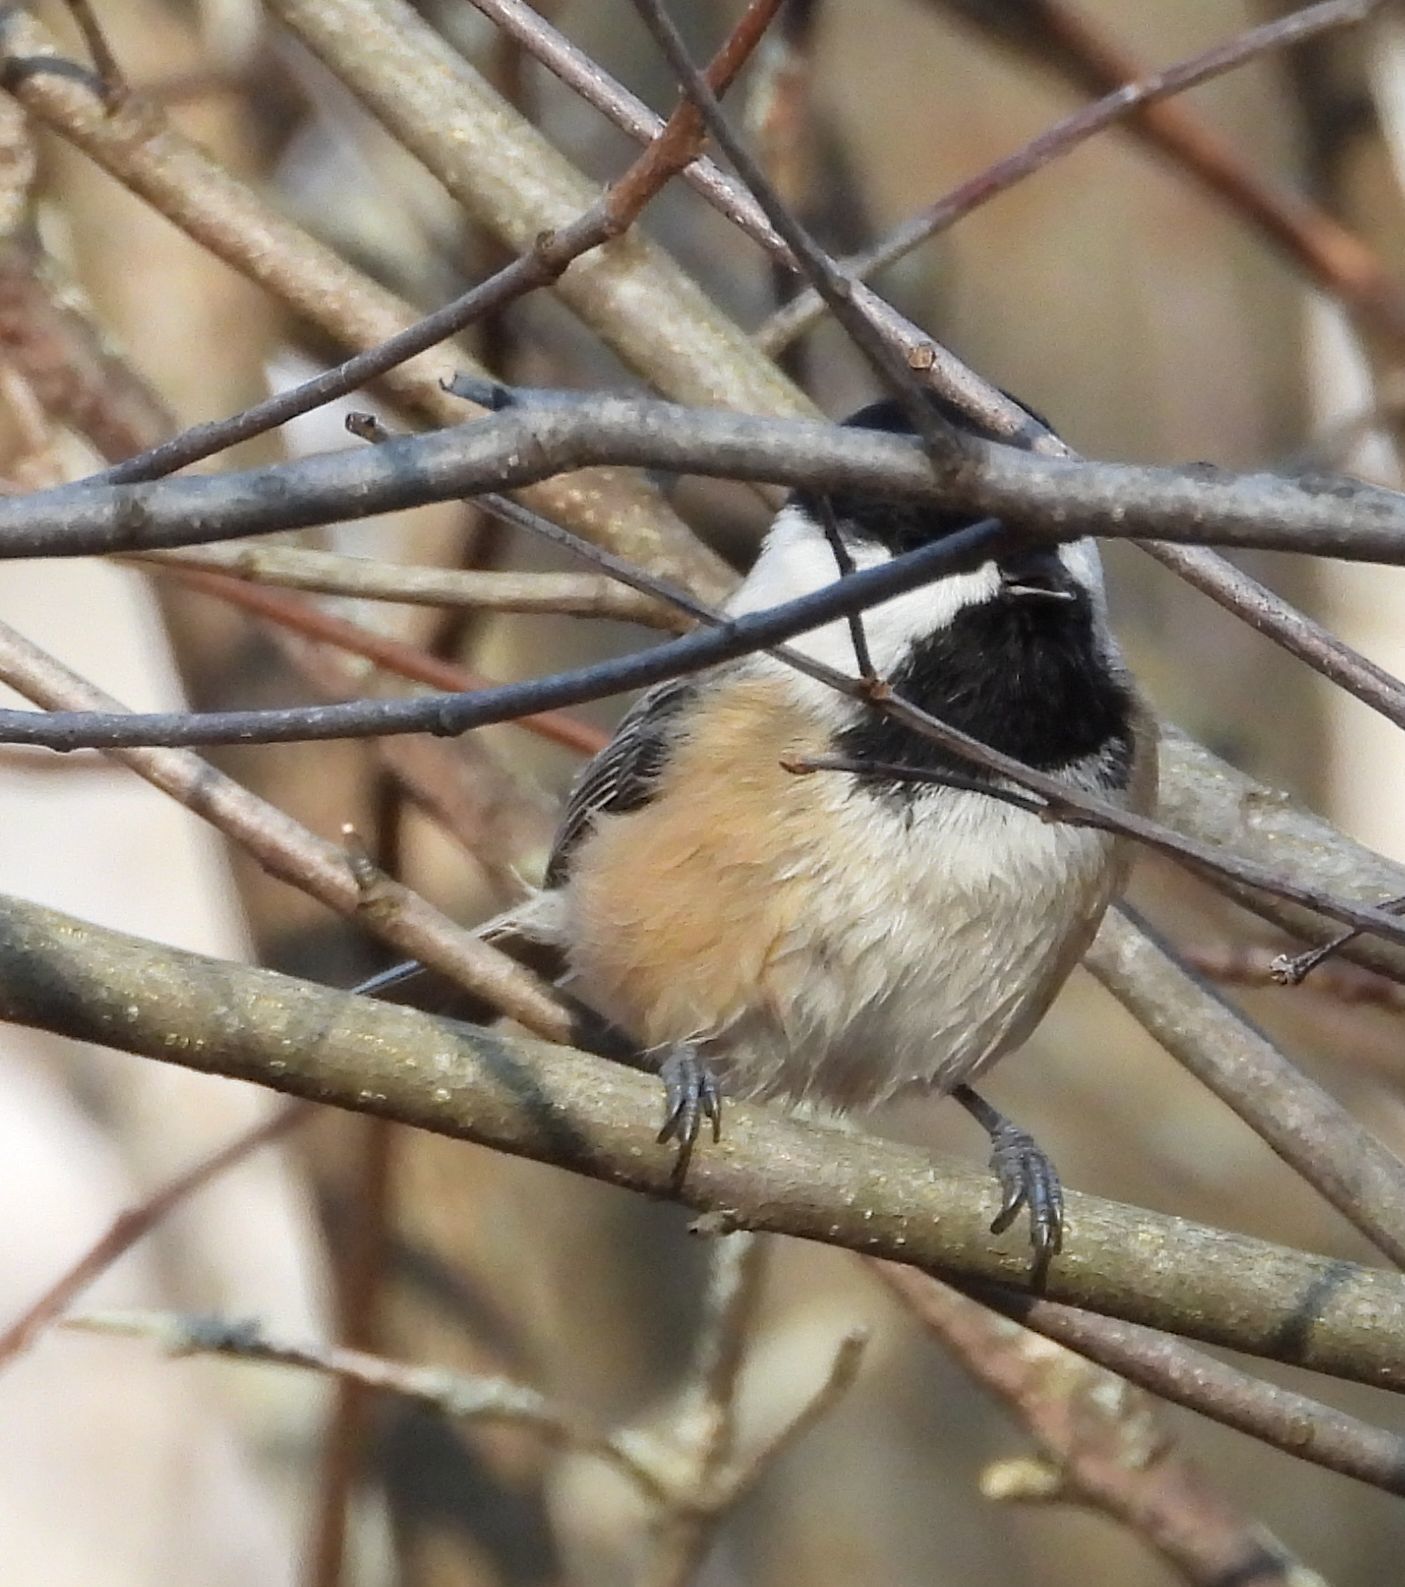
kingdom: Animalia
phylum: Chordata
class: Aves
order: Passeriformes
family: Paridae
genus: Poecile
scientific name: Poecile atricapillus
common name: Black-capped chickadee
